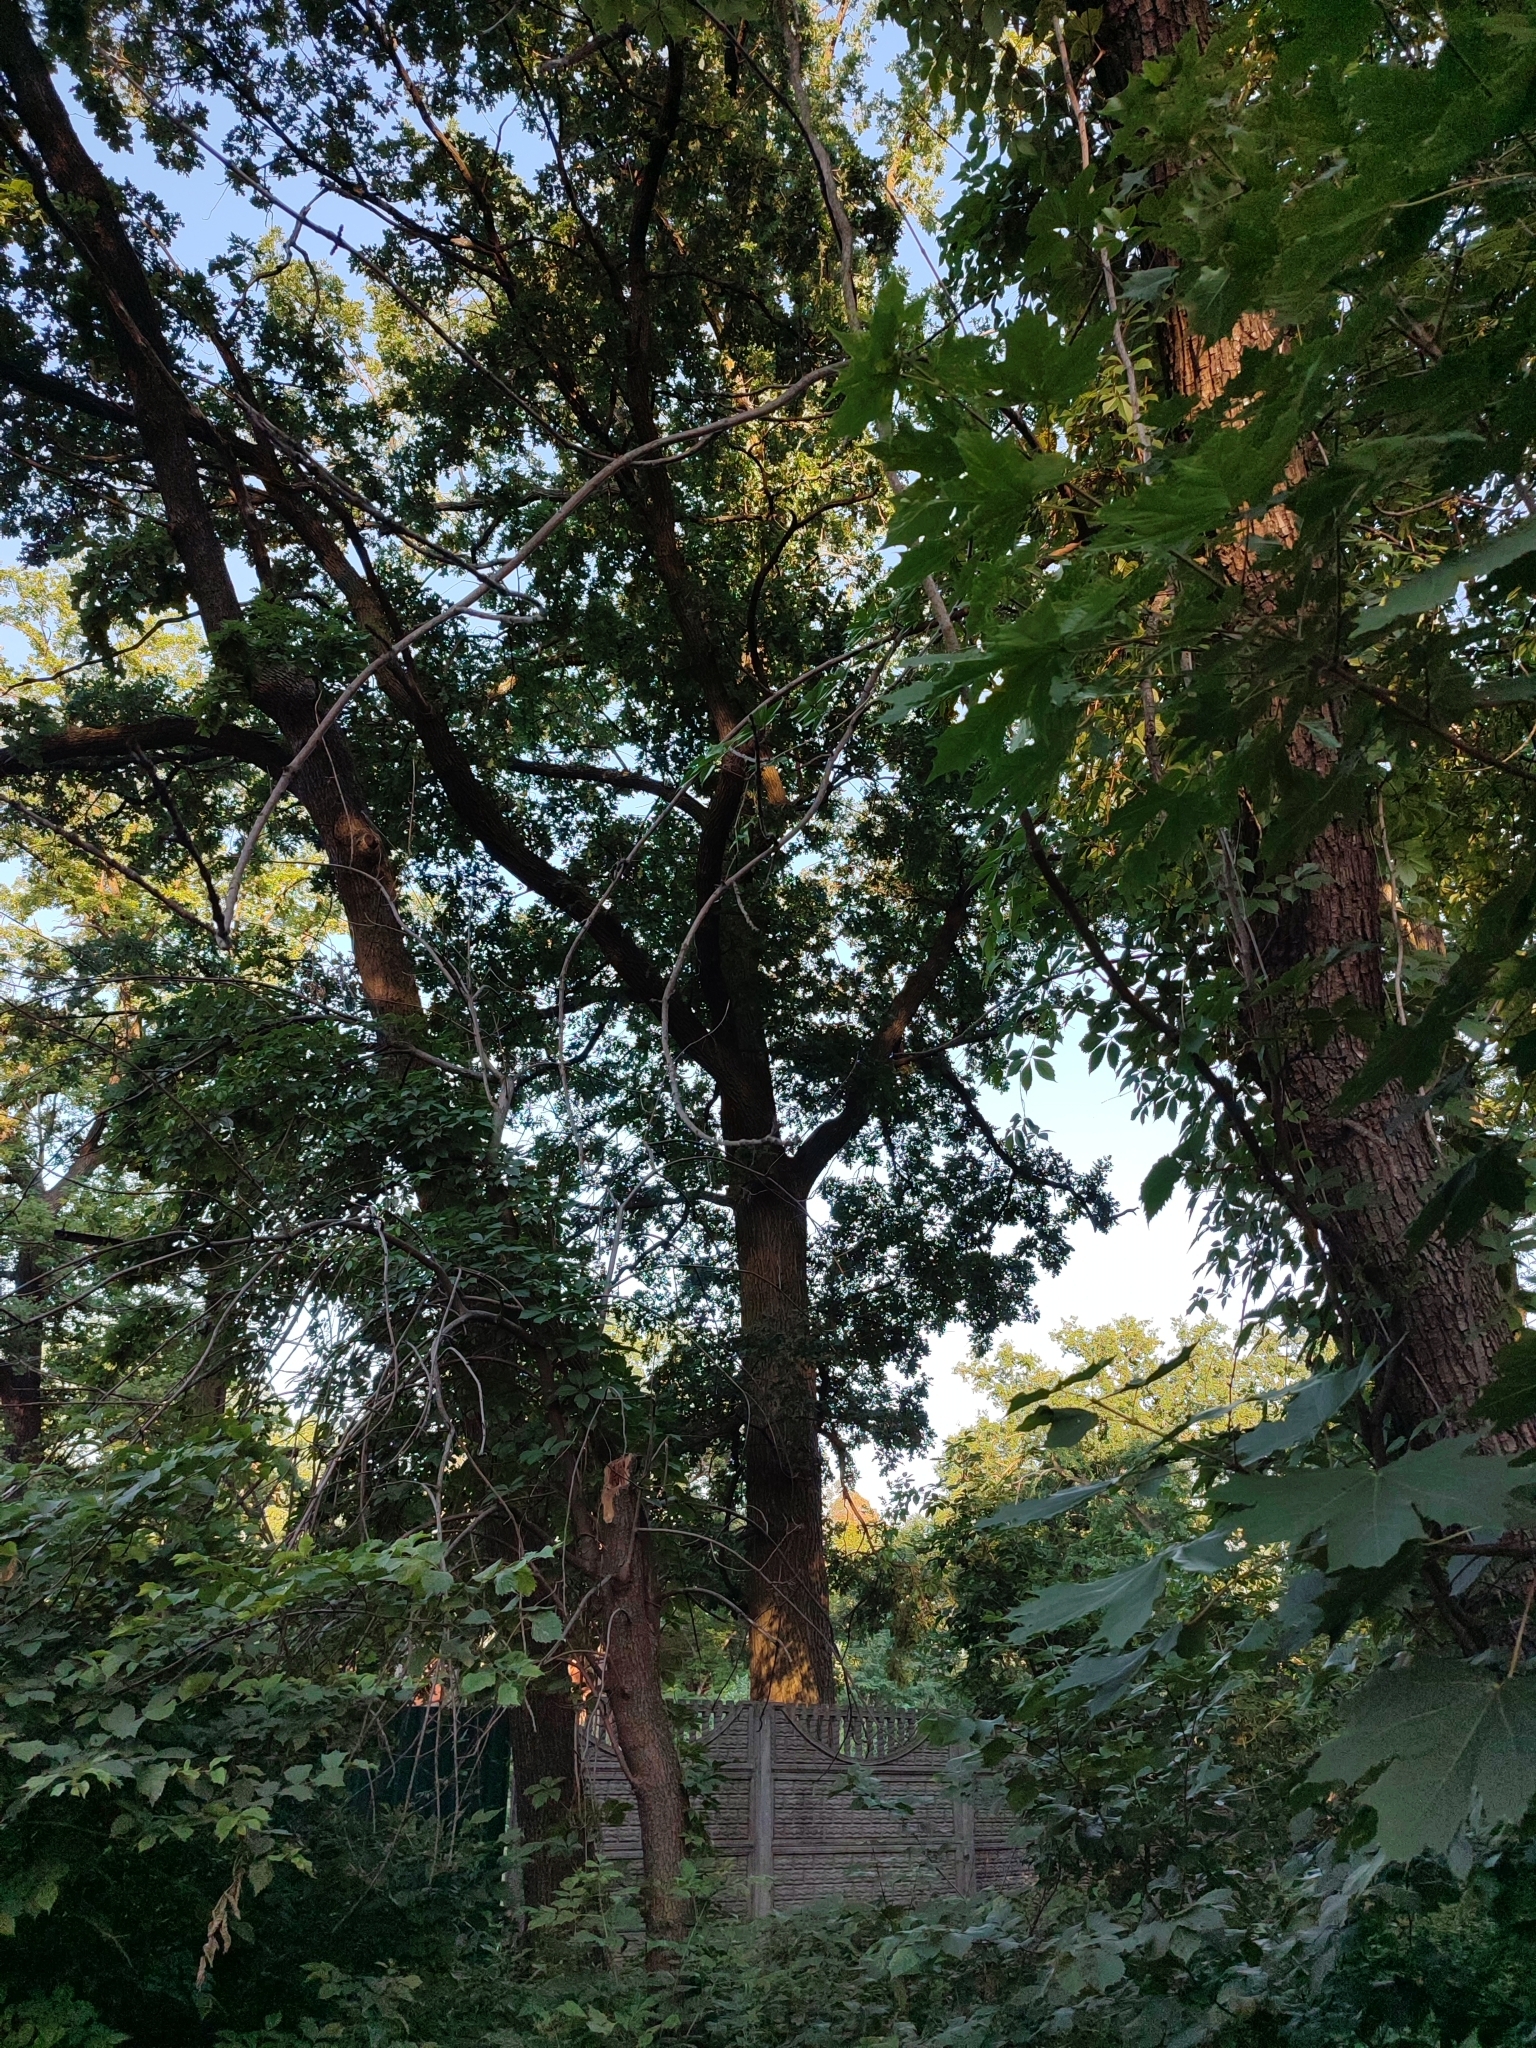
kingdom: Plantae
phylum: Tracheophyta
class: Magnoliopsida
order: Fagales
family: Fagaceae
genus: Quercus
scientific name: Quercus robur
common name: Pedunculate oak
